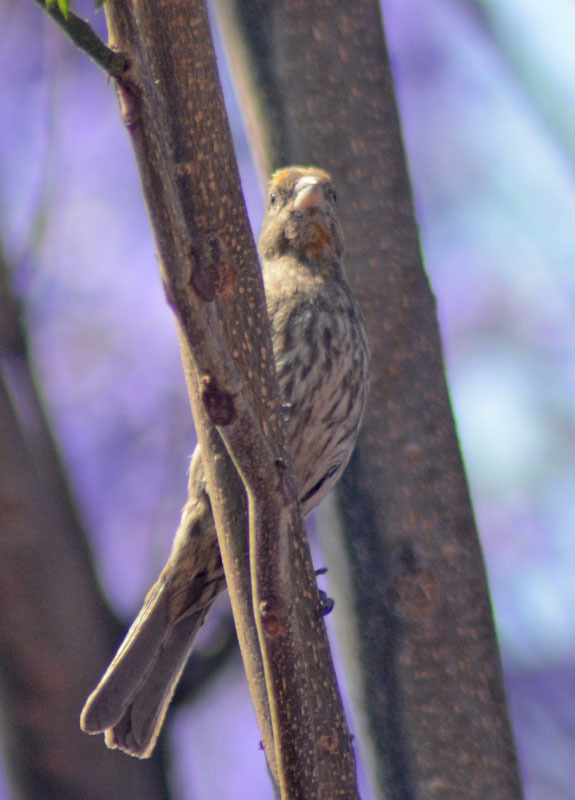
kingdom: Animalia
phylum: Chordata
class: Aves
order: Passeriformes
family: Fringillidae
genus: Haemorhous
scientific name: Haemorhous mexicanus
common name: House finch
